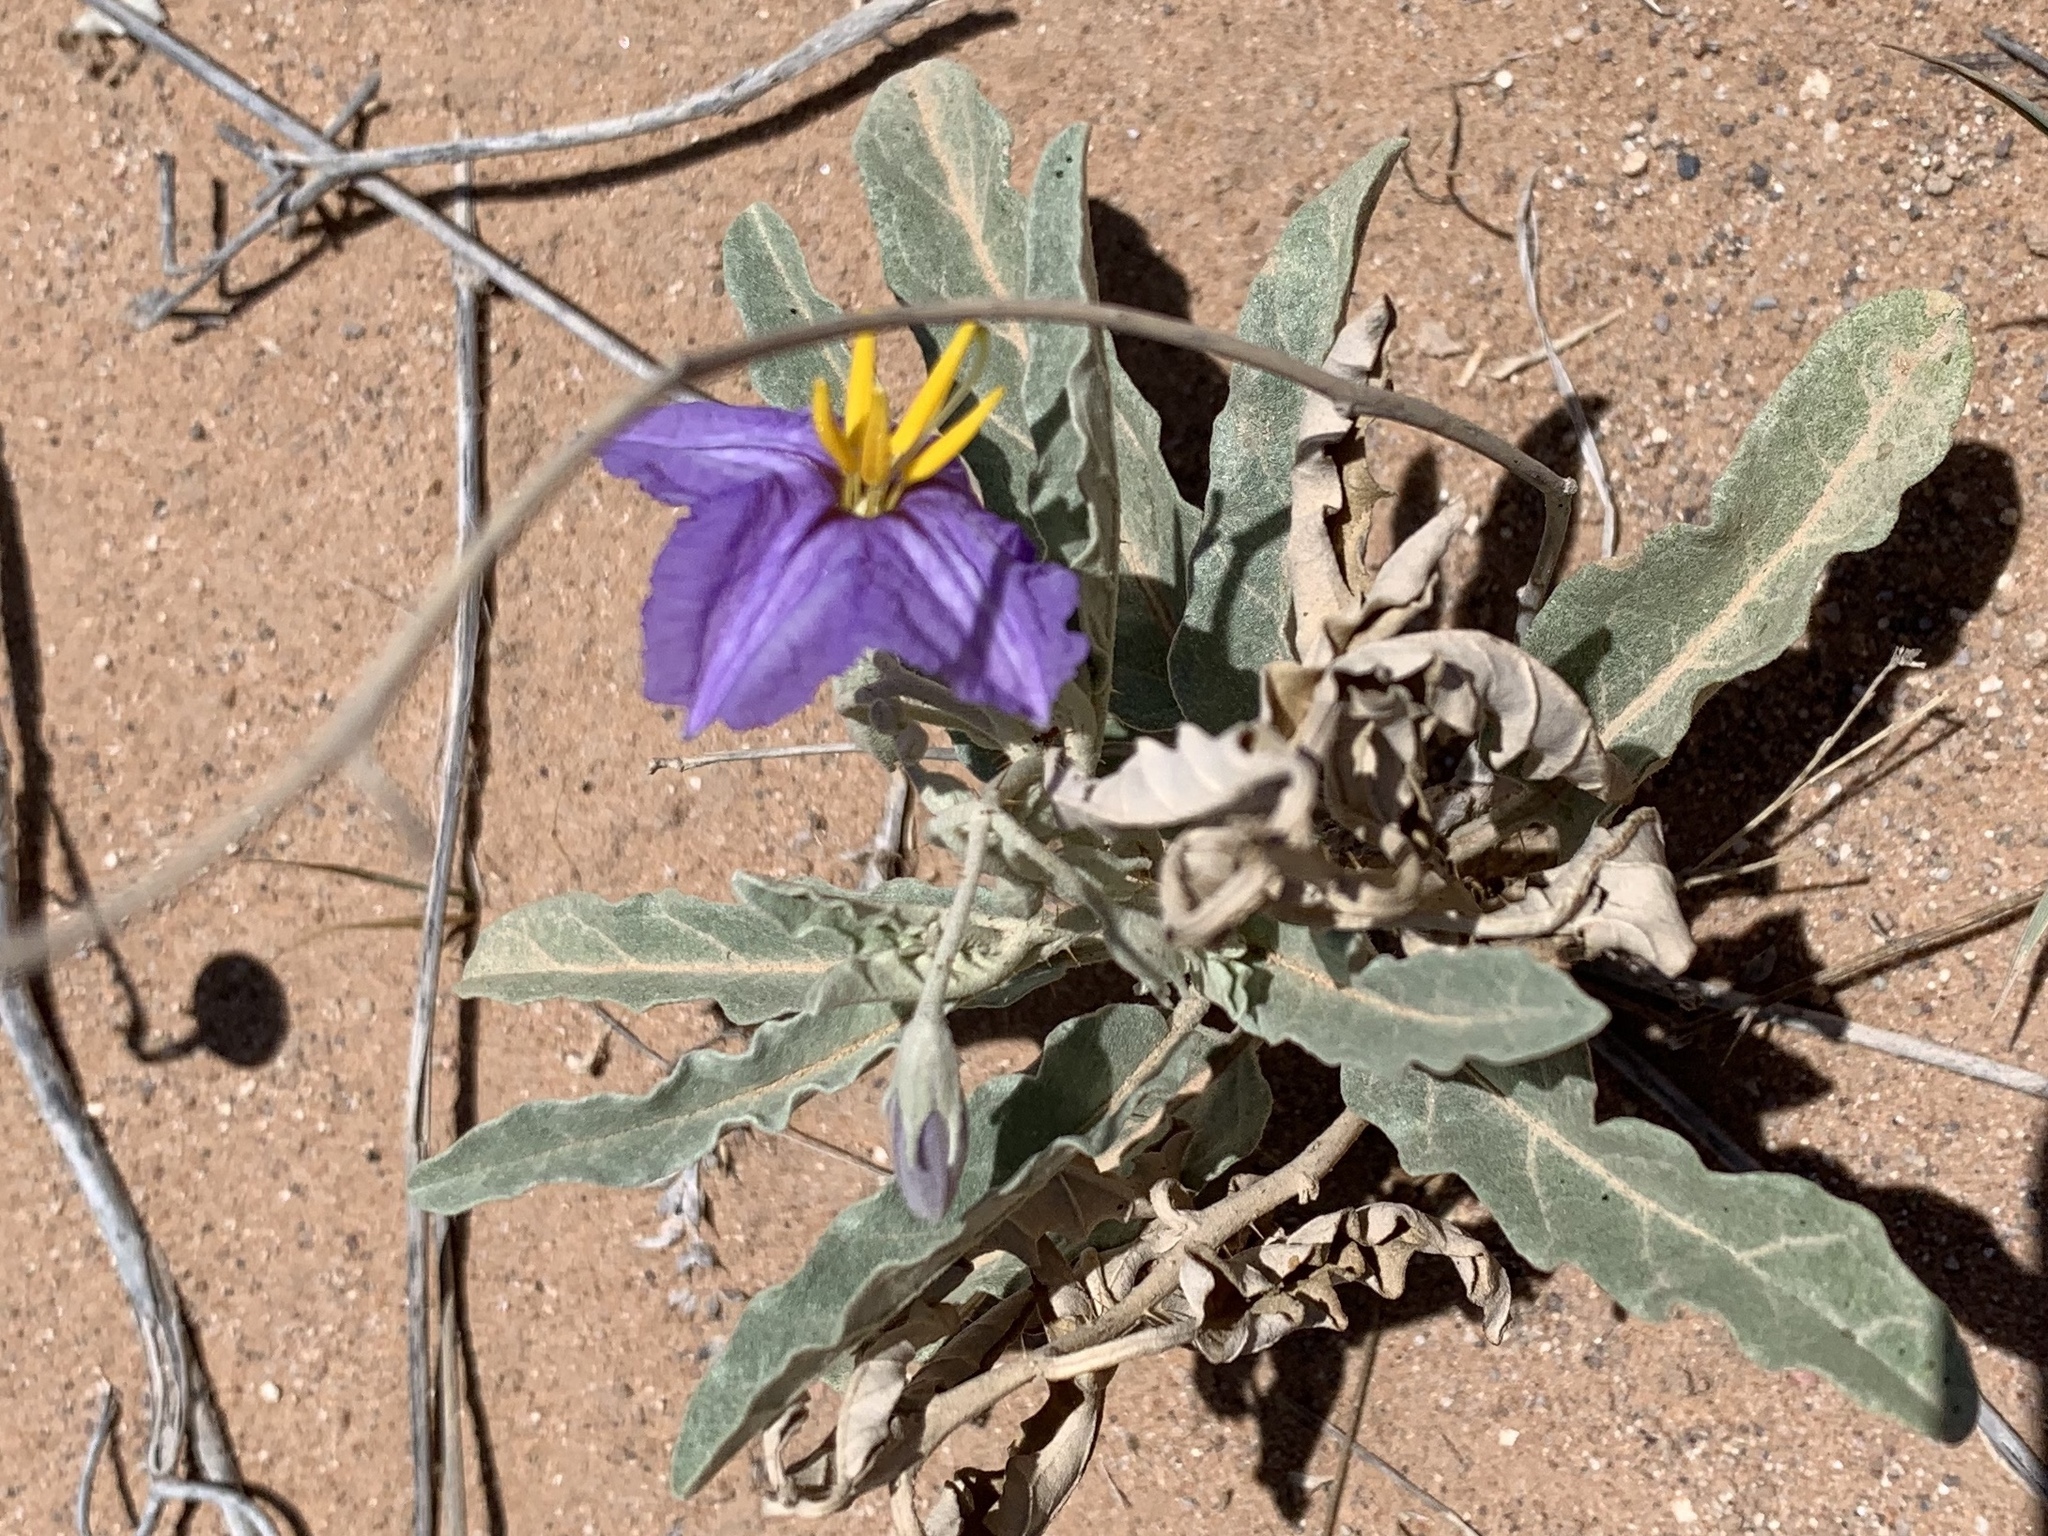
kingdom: Plantae
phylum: Tracheophyta
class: Magnoliopsida
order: Solanales
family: Solanaceae
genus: Solanum
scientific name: Solanum elaeagnifolium
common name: Silverleaf nightshade
